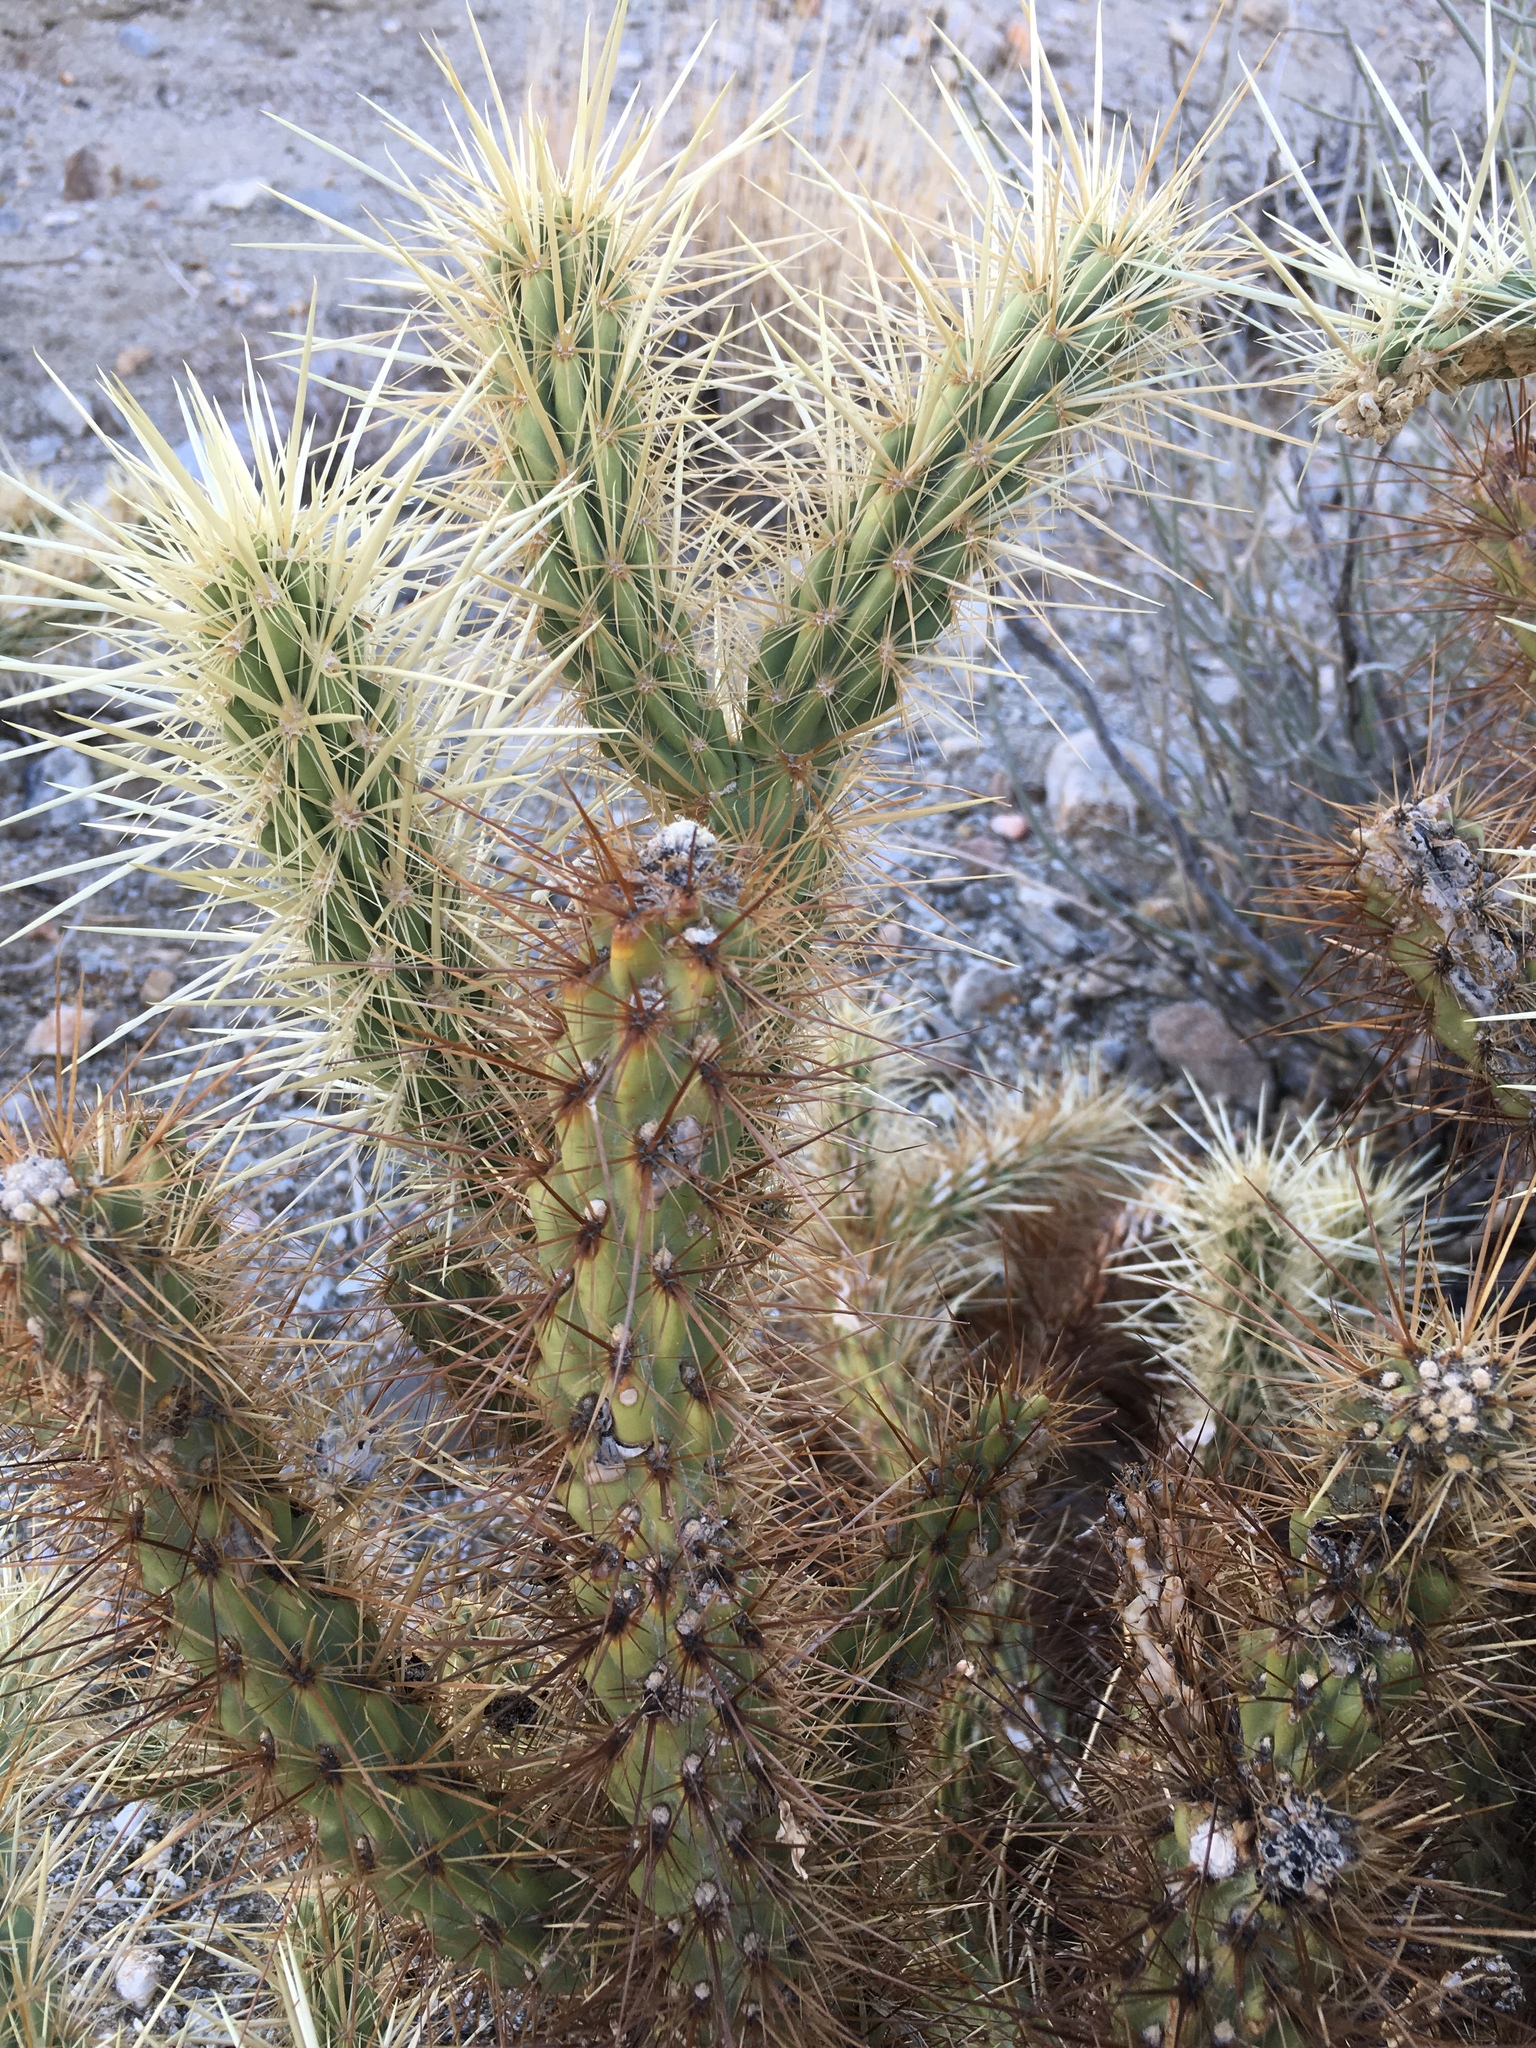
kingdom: Plantae
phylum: Tracheophyta
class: Magnoliopsida
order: Caryophyllales
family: Cactaceae
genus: Cylindropuntia
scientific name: Cylindropuntia ganderi
